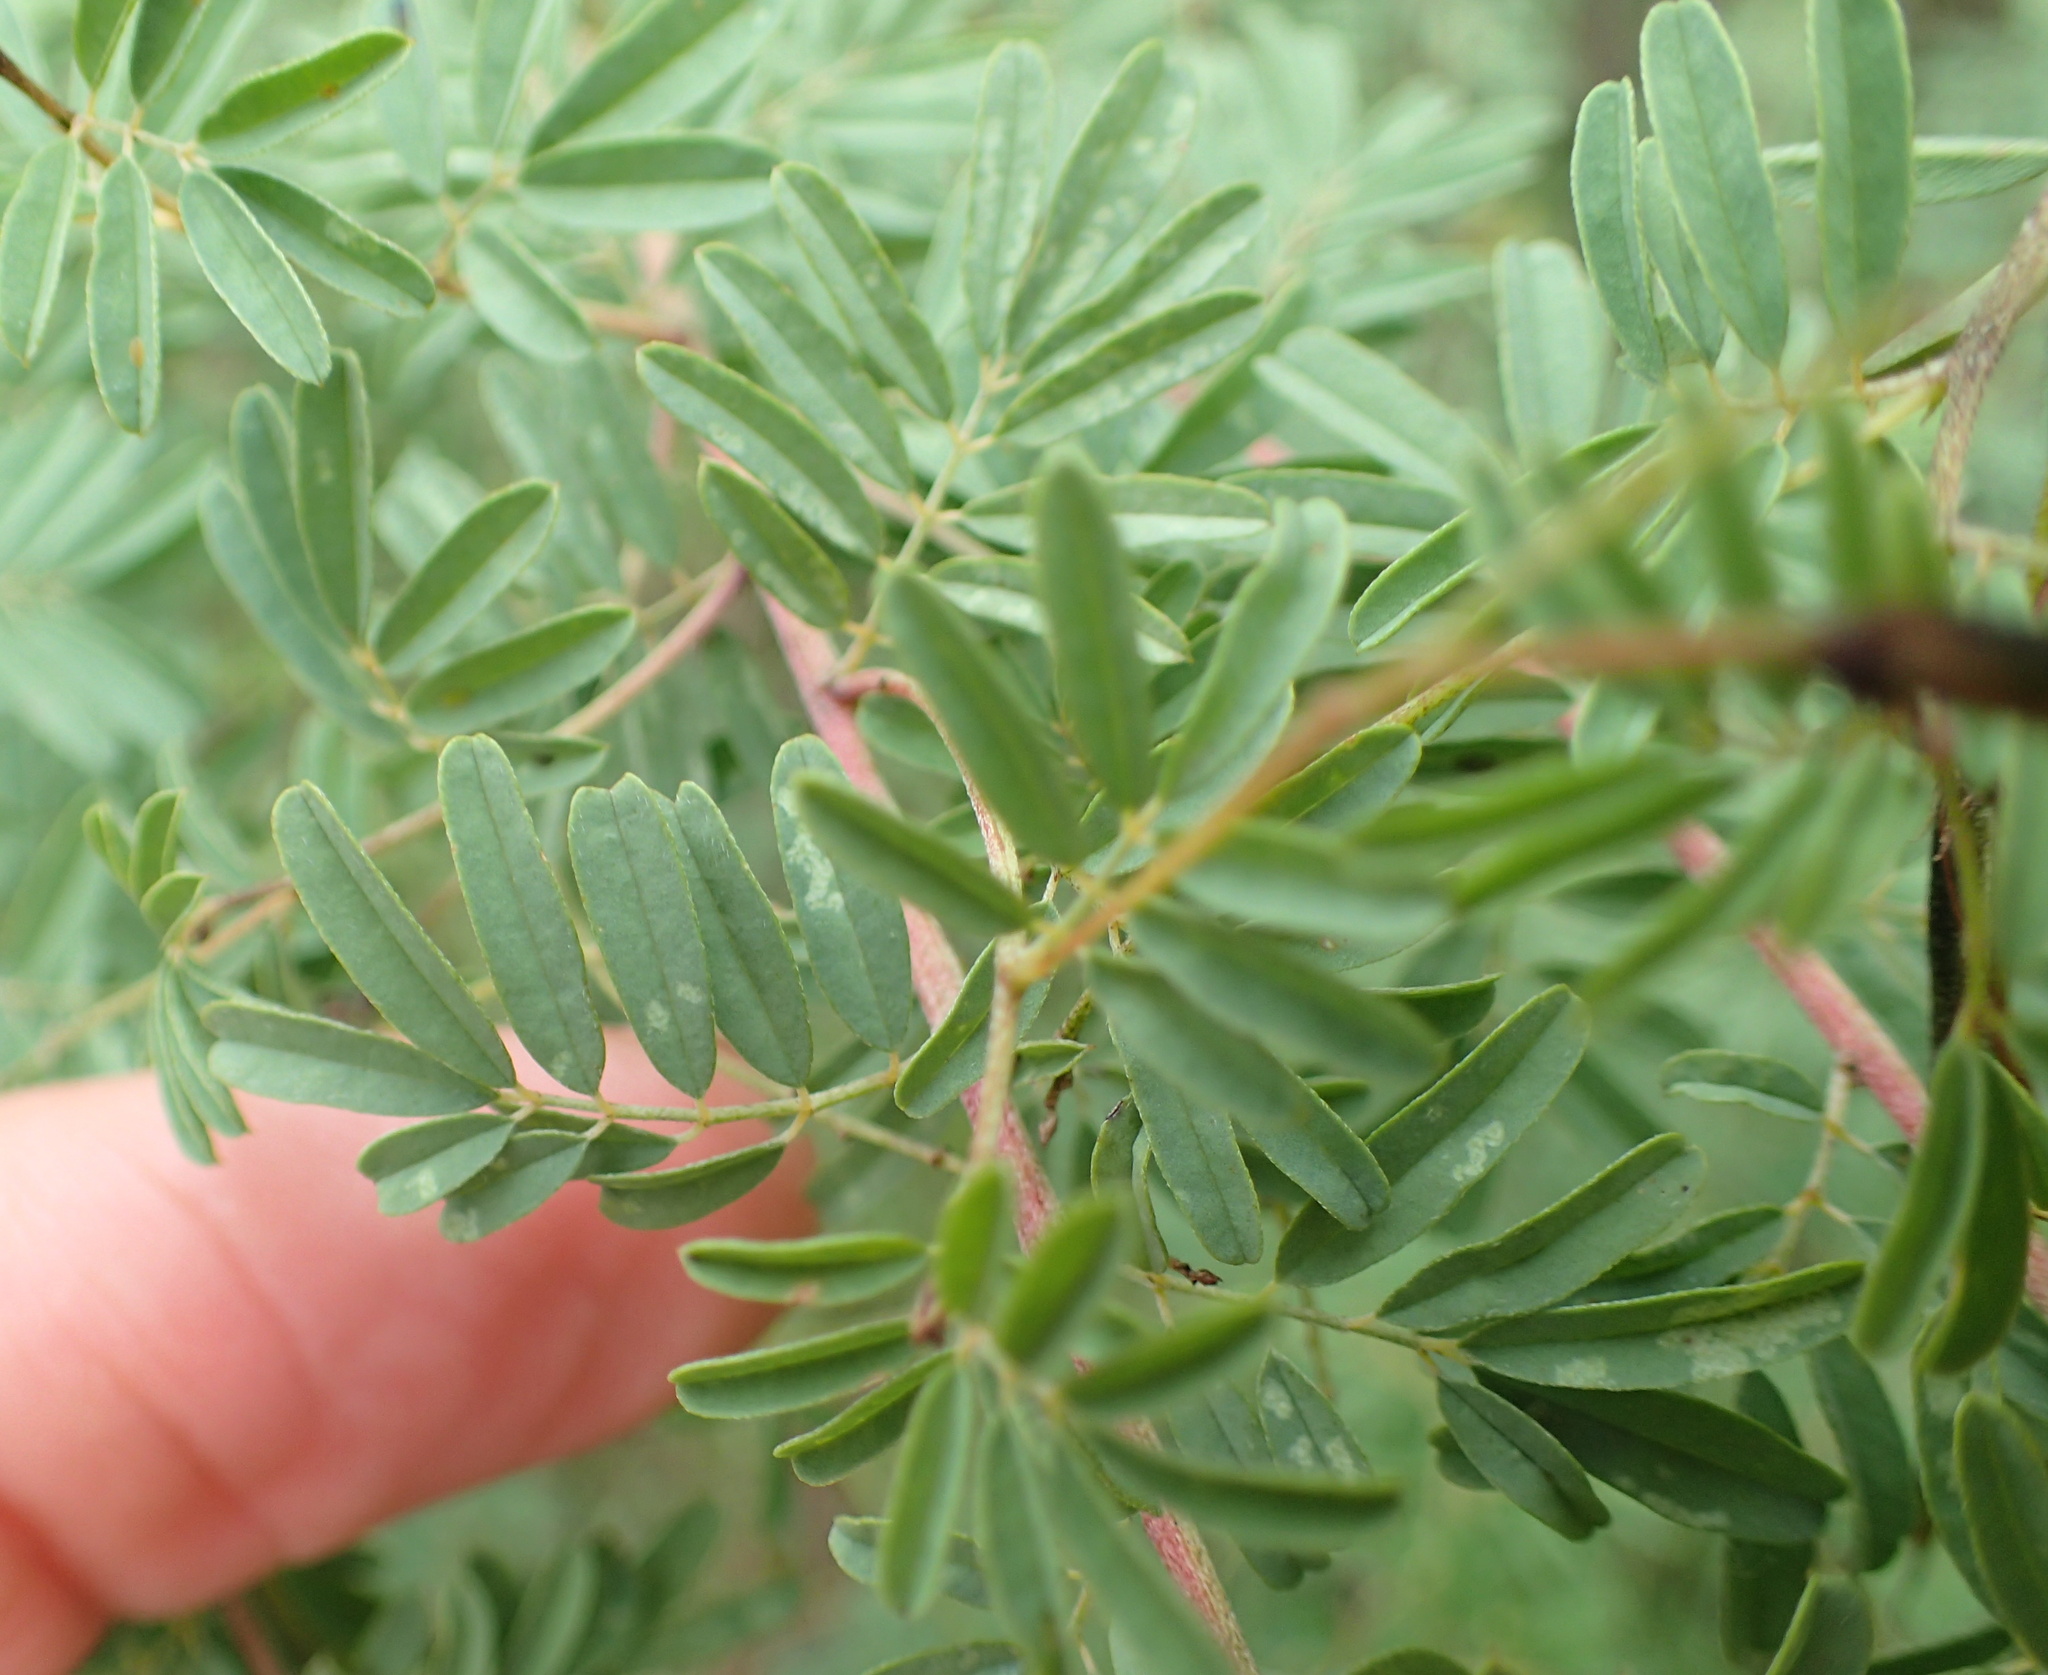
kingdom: Plantae
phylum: Tracheophyta
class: Magnoliopsida
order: Fabales
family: Fabaceae
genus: Indigofera
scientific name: Indigofera tristis
